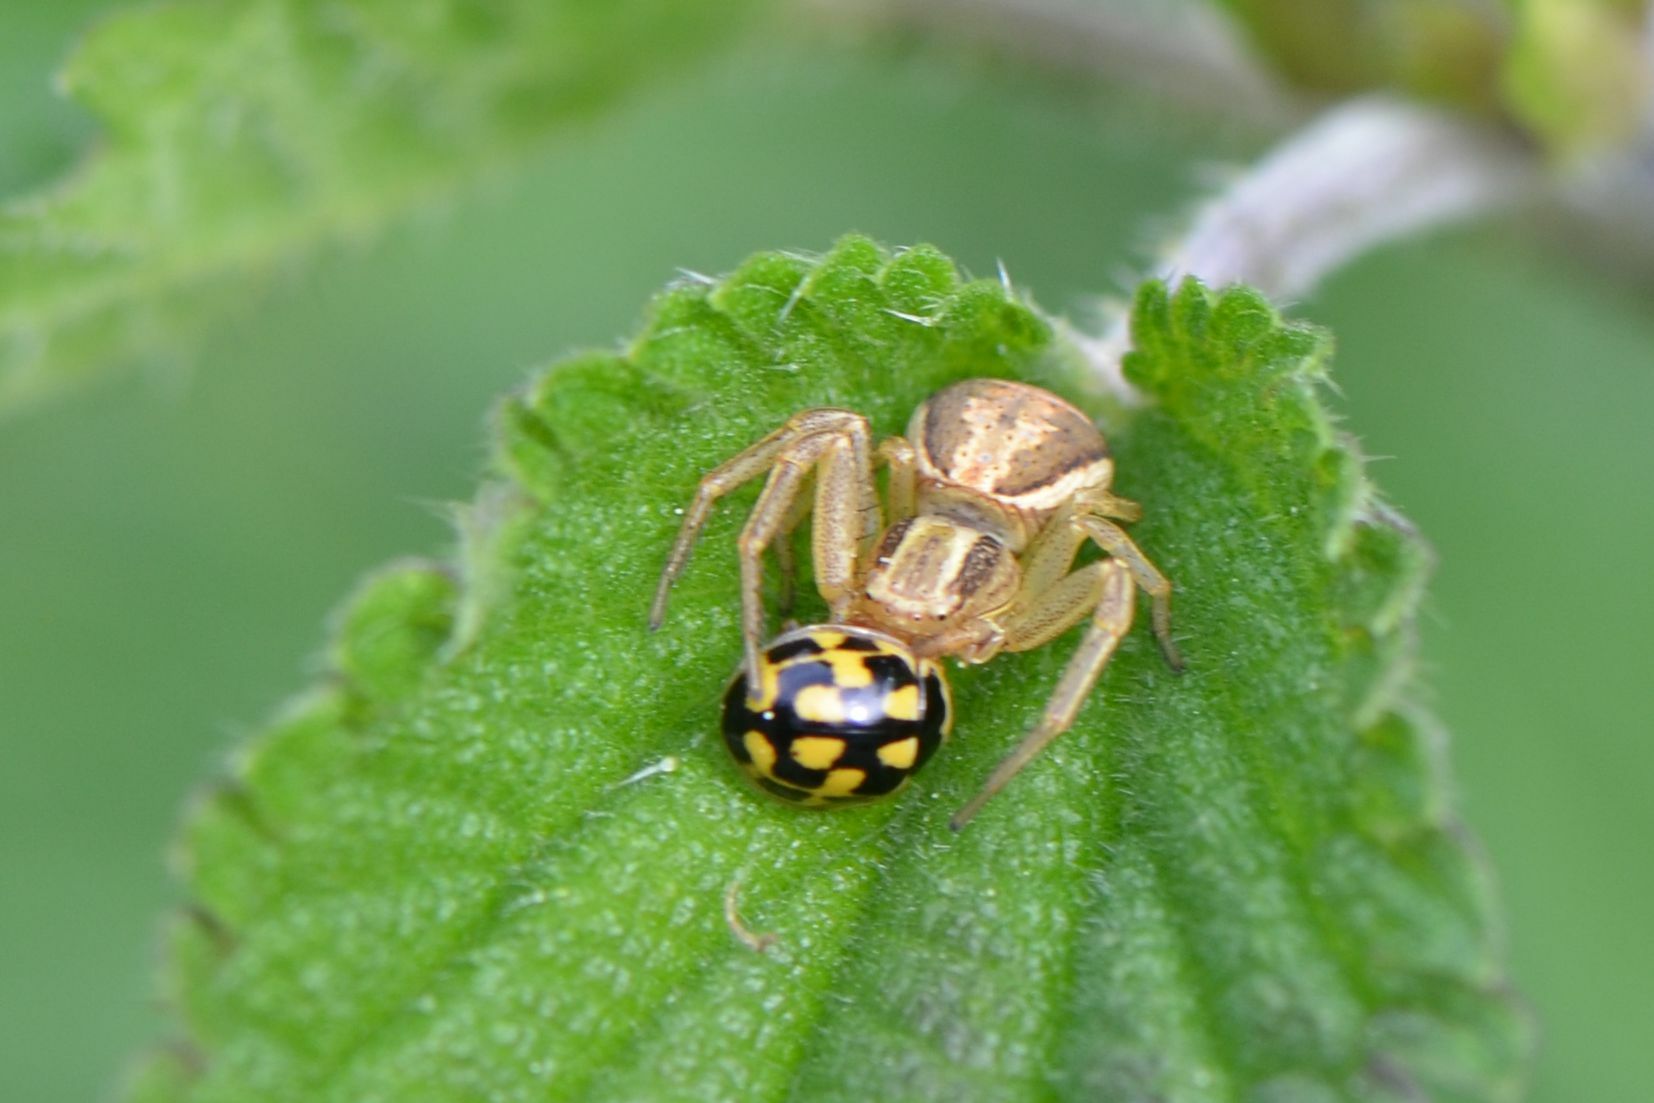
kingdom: Animalia
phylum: Arthropoda
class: Insecta
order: Coleoptera
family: Coccinellidae
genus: Propylaea
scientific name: Propylaea quatuordecimpunctata
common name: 14-spotted ladybird beetle
